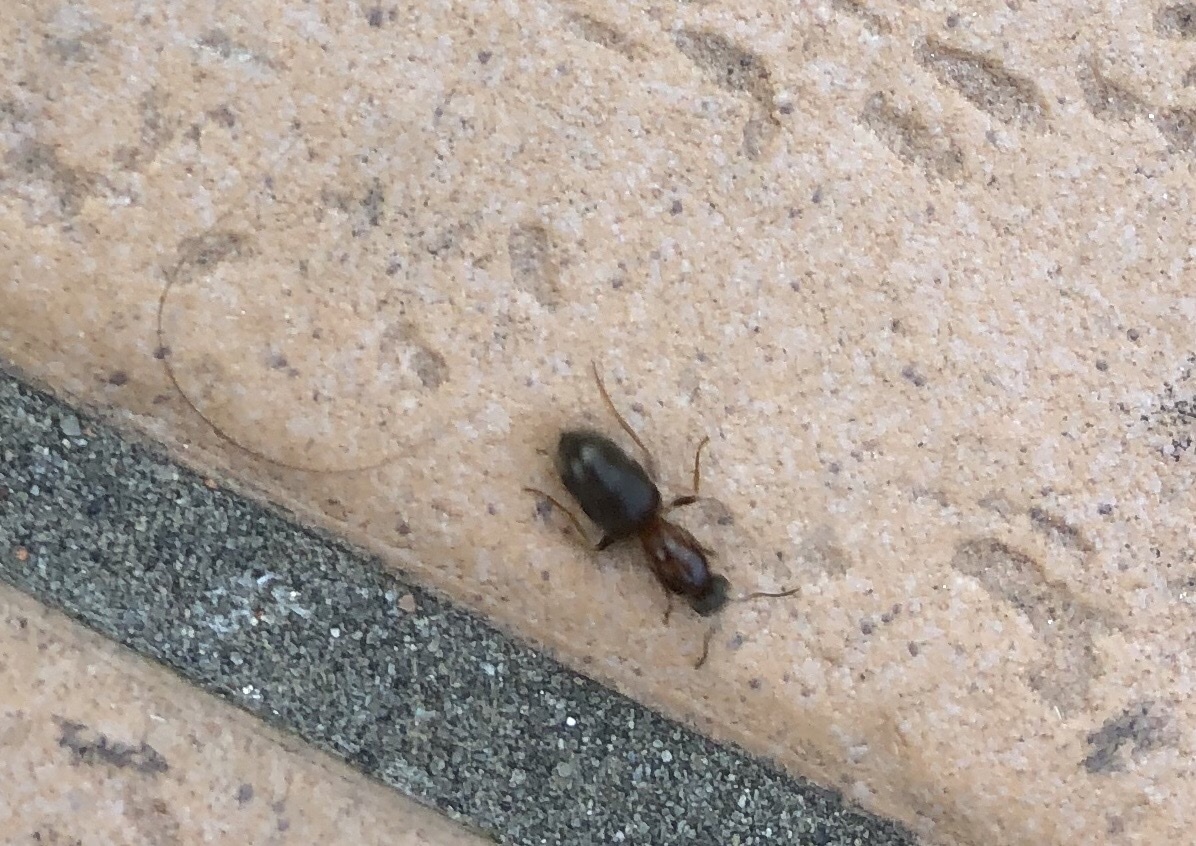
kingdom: Animalia
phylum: Arthropoda
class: Insecta
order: Hymenoptera
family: Formicidae
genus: Lasius
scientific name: Lasius emarginatus
